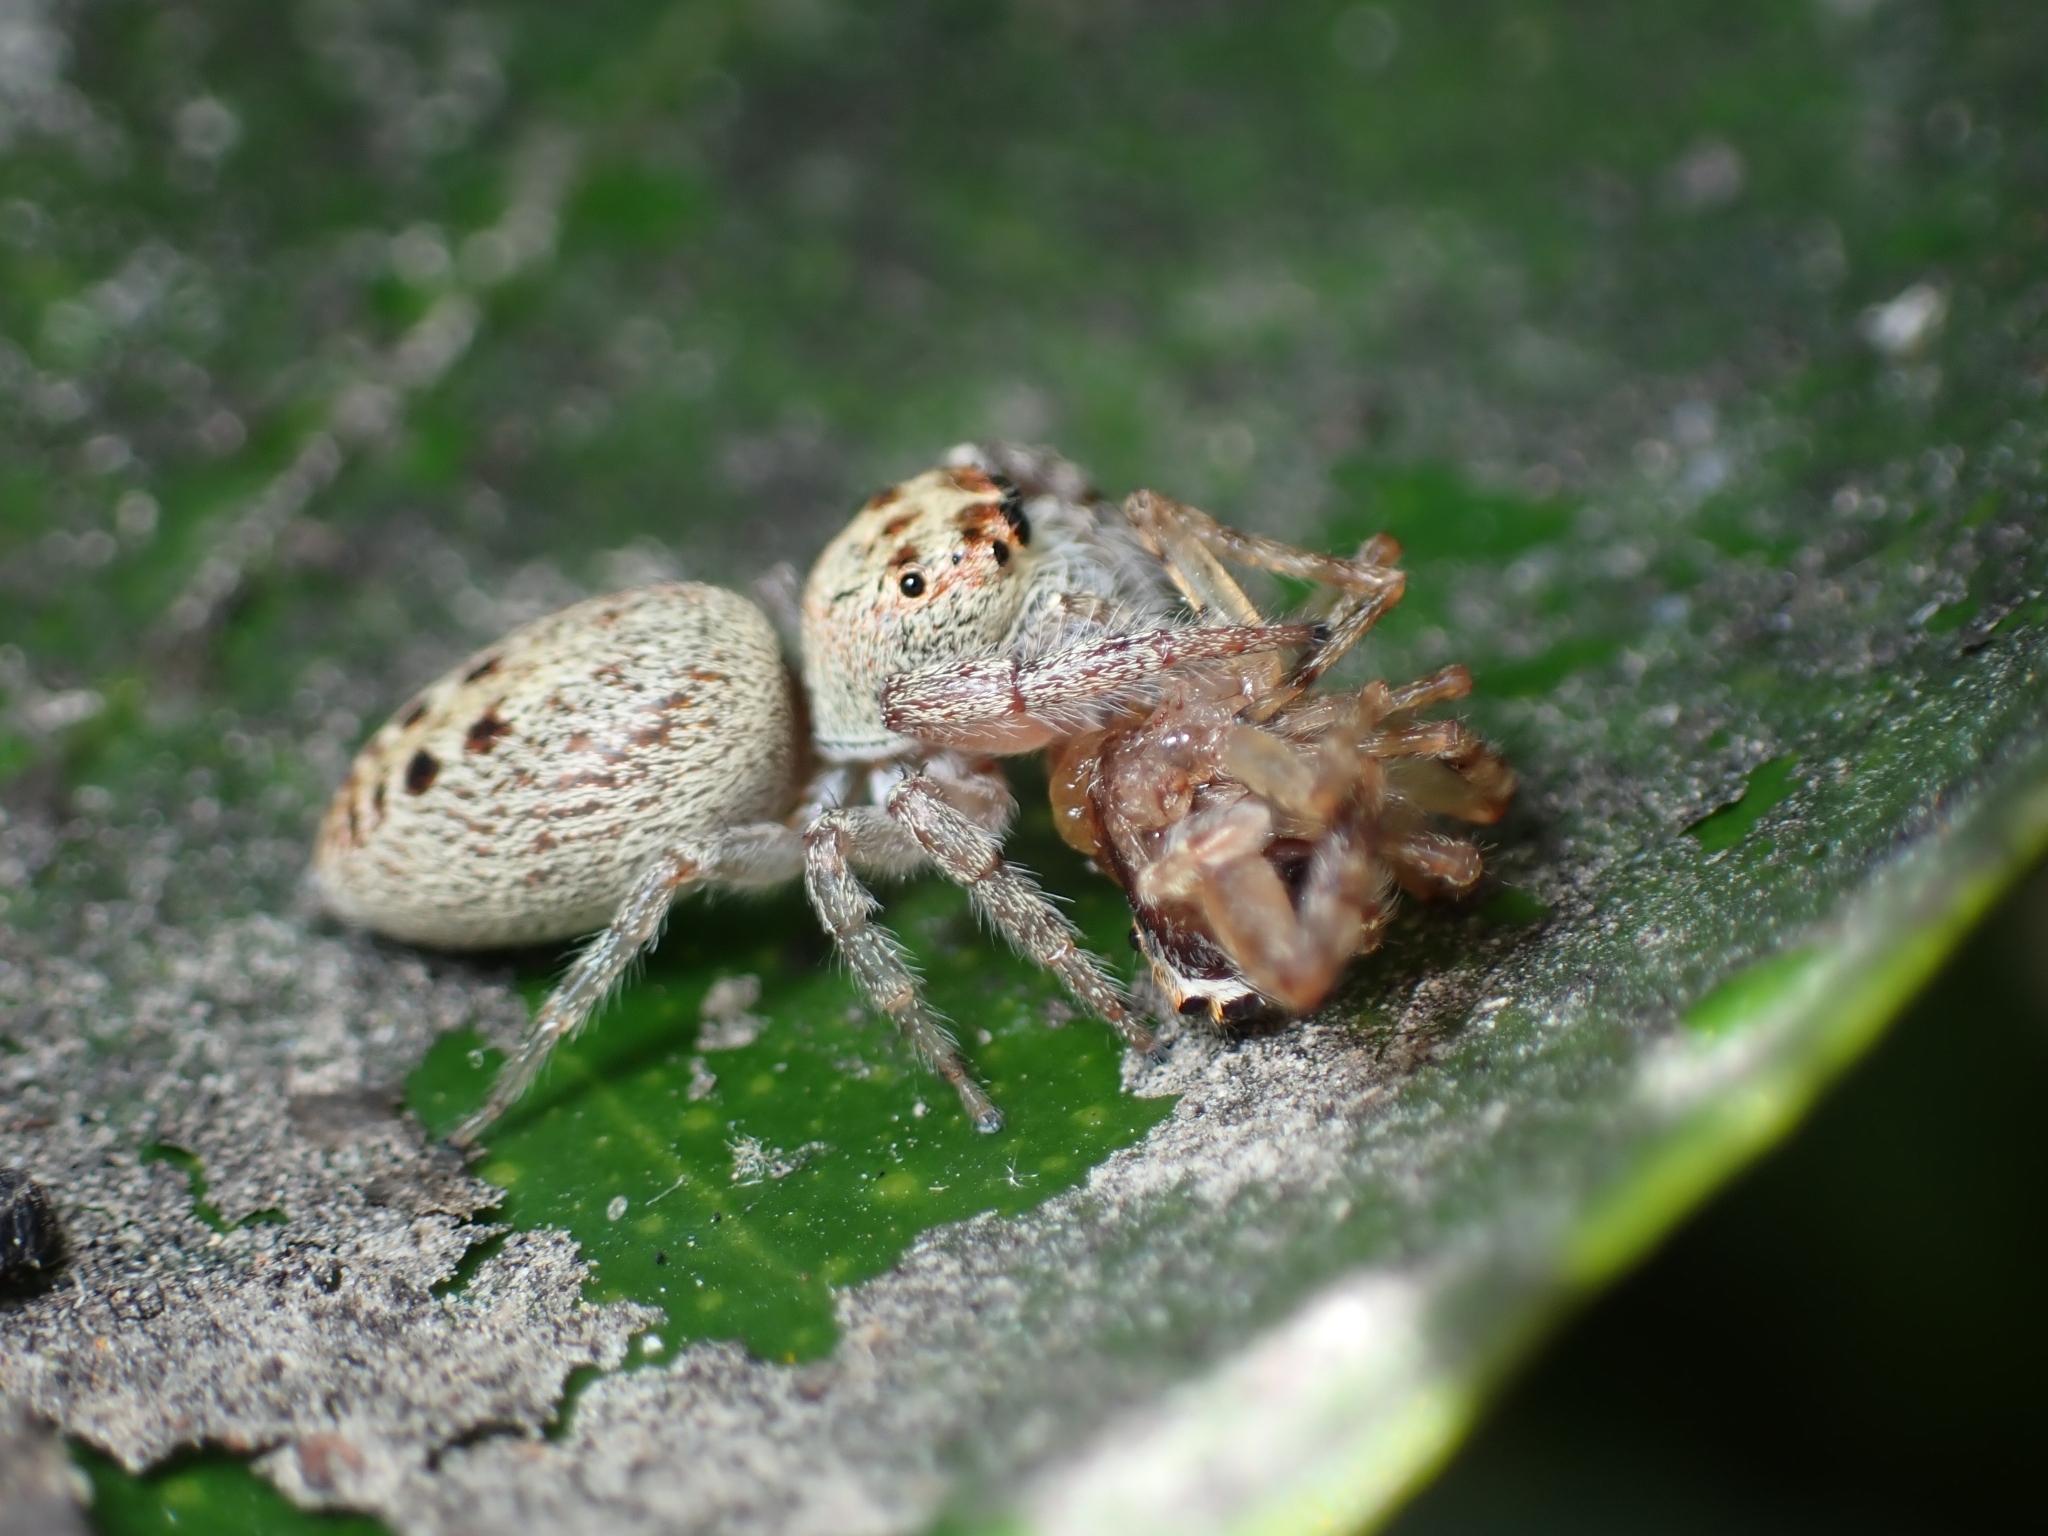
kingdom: Animalia
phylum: Arthropoda
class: Arachnida
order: Araneae
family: Salticidae
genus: Opisthoncus
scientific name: Opisthoncus polyphemus
